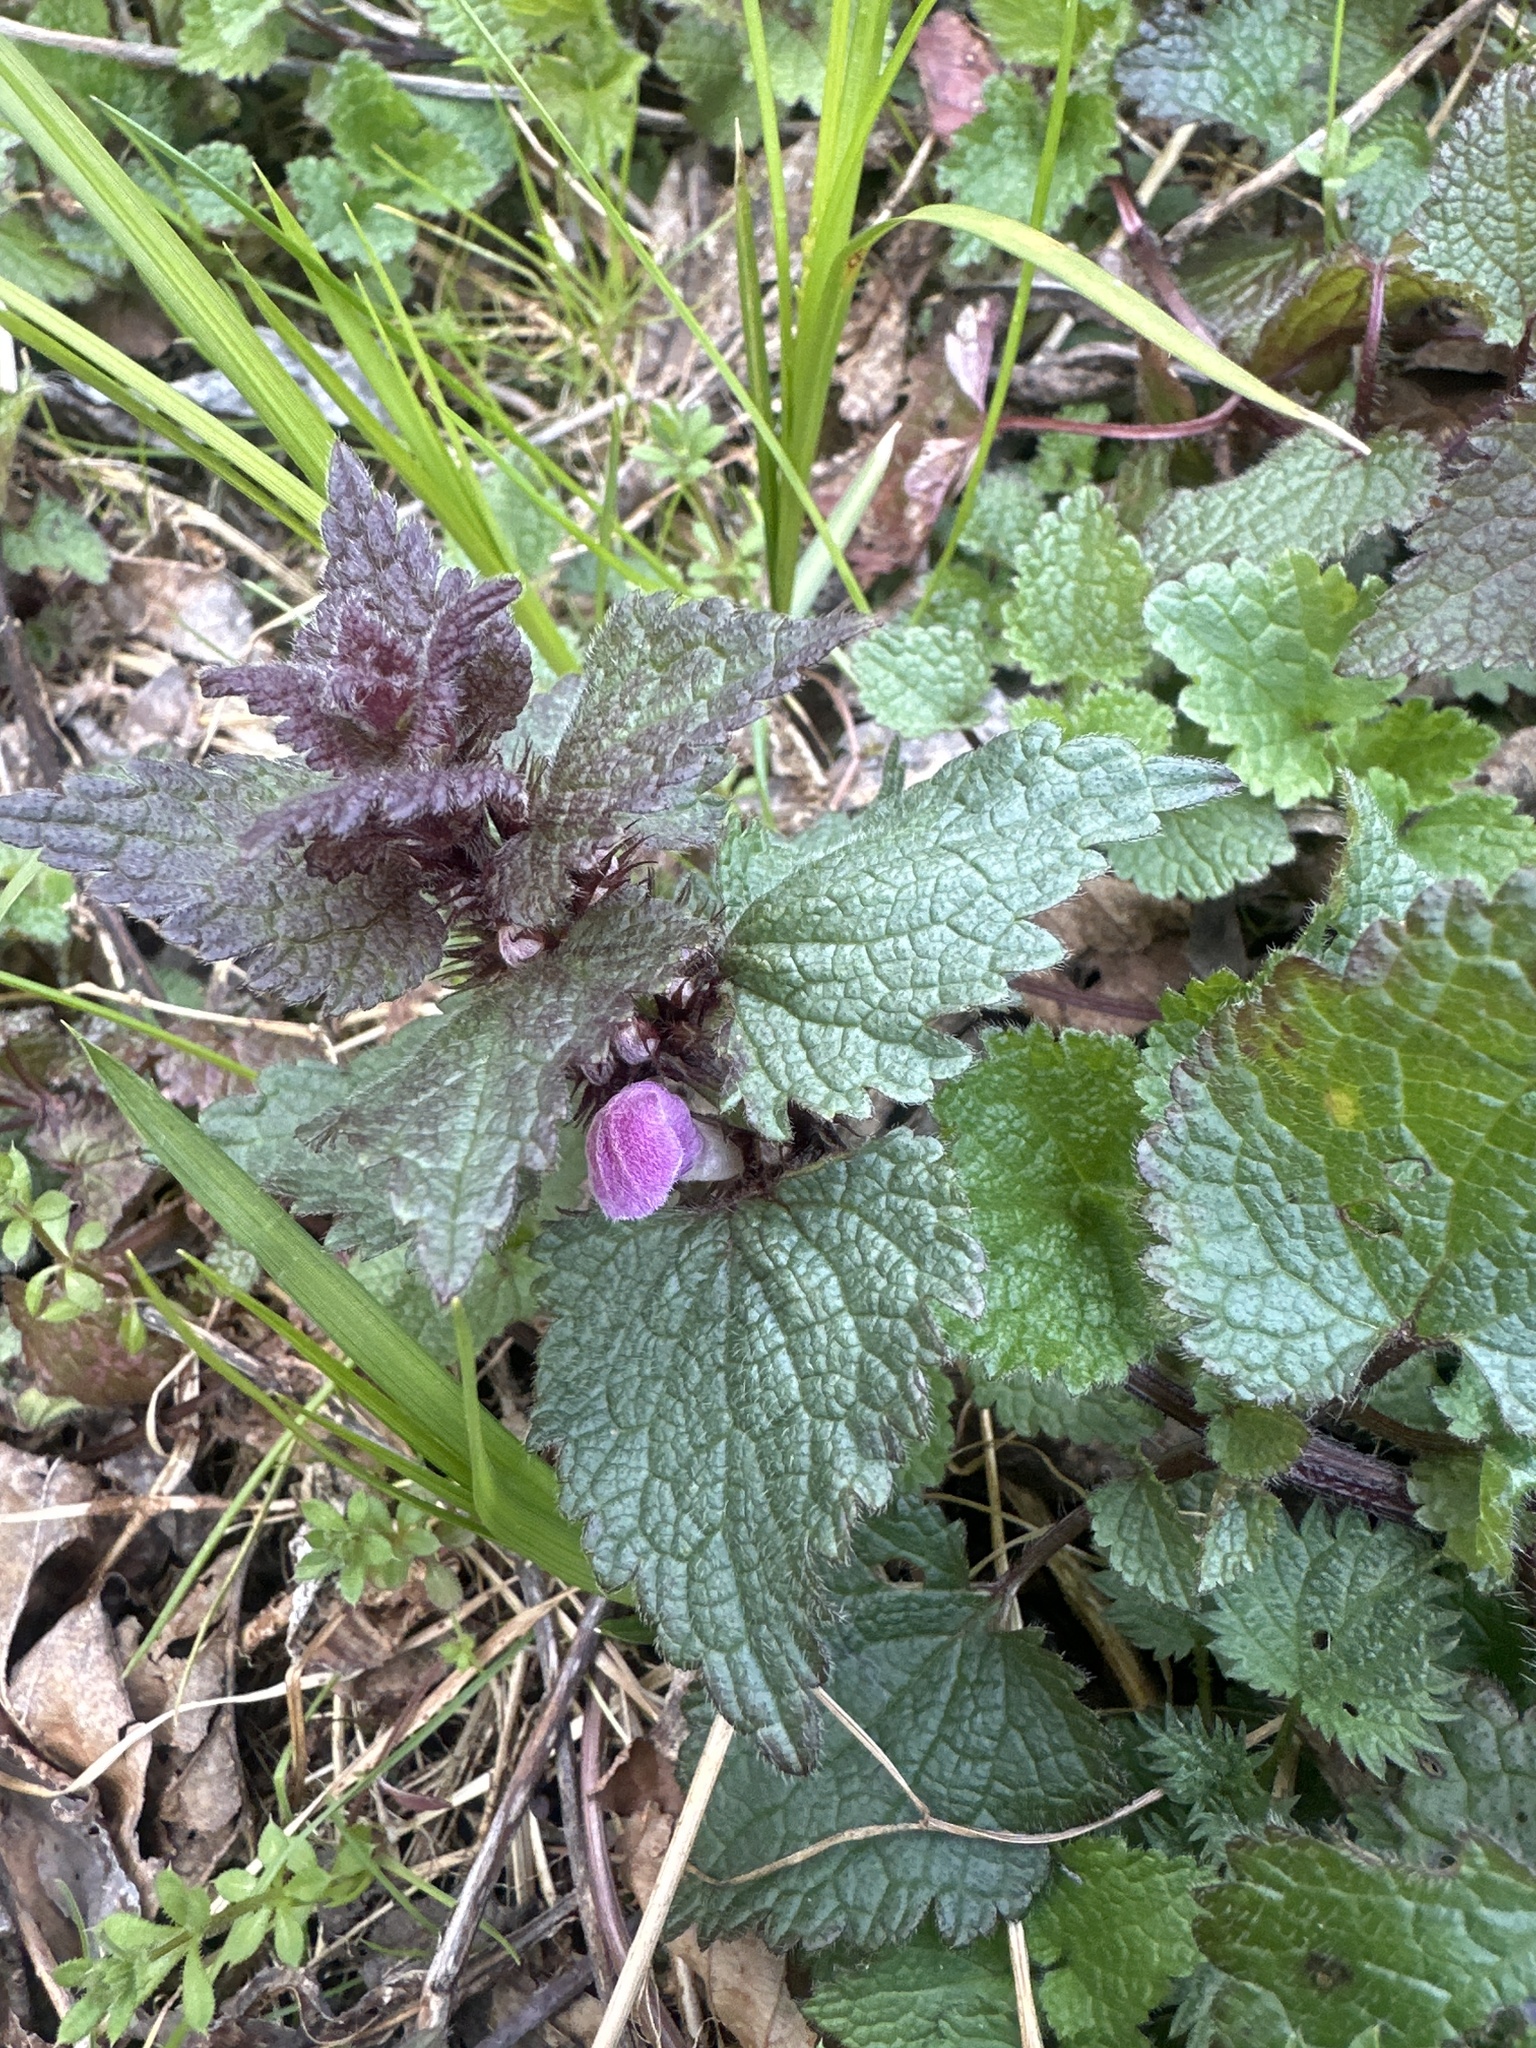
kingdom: Plantae
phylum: Tracheophyta
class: Magnoliopsida
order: Lamiales
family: Lamiaceae
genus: Lamium
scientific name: Lamium maculatum
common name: Spotted dead-nettle
